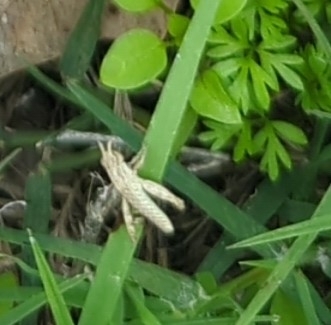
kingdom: Animalia
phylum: Arthropoda
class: Insecta
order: Orthoptera
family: Acrididae
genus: Chortophaga
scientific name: Chortophaga viridifasciata
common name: Green-striped grasshopper
